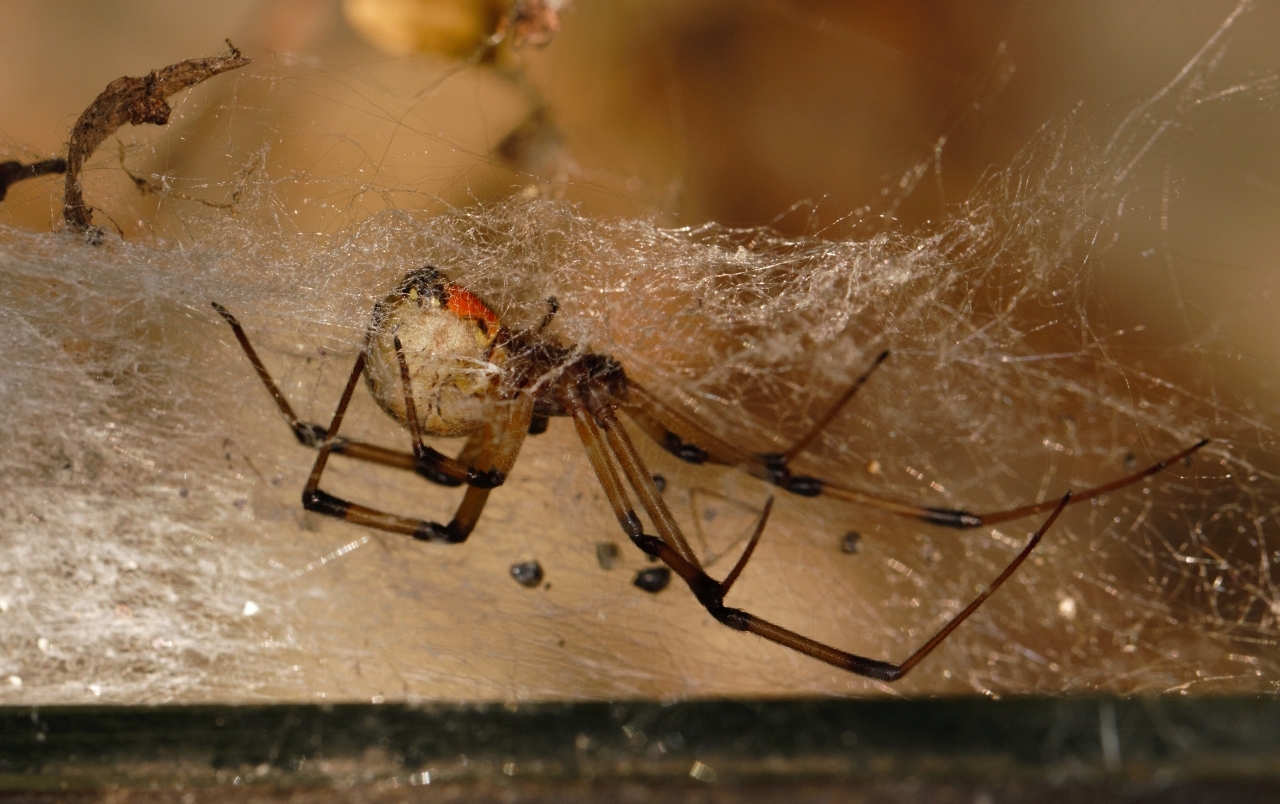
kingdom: Animalia
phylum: Arthropoda
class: Arachnida
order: Araneae
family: Theridiidae
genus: Latrodectus
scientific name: Latrodectus geometricus
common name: Brown widow spider
